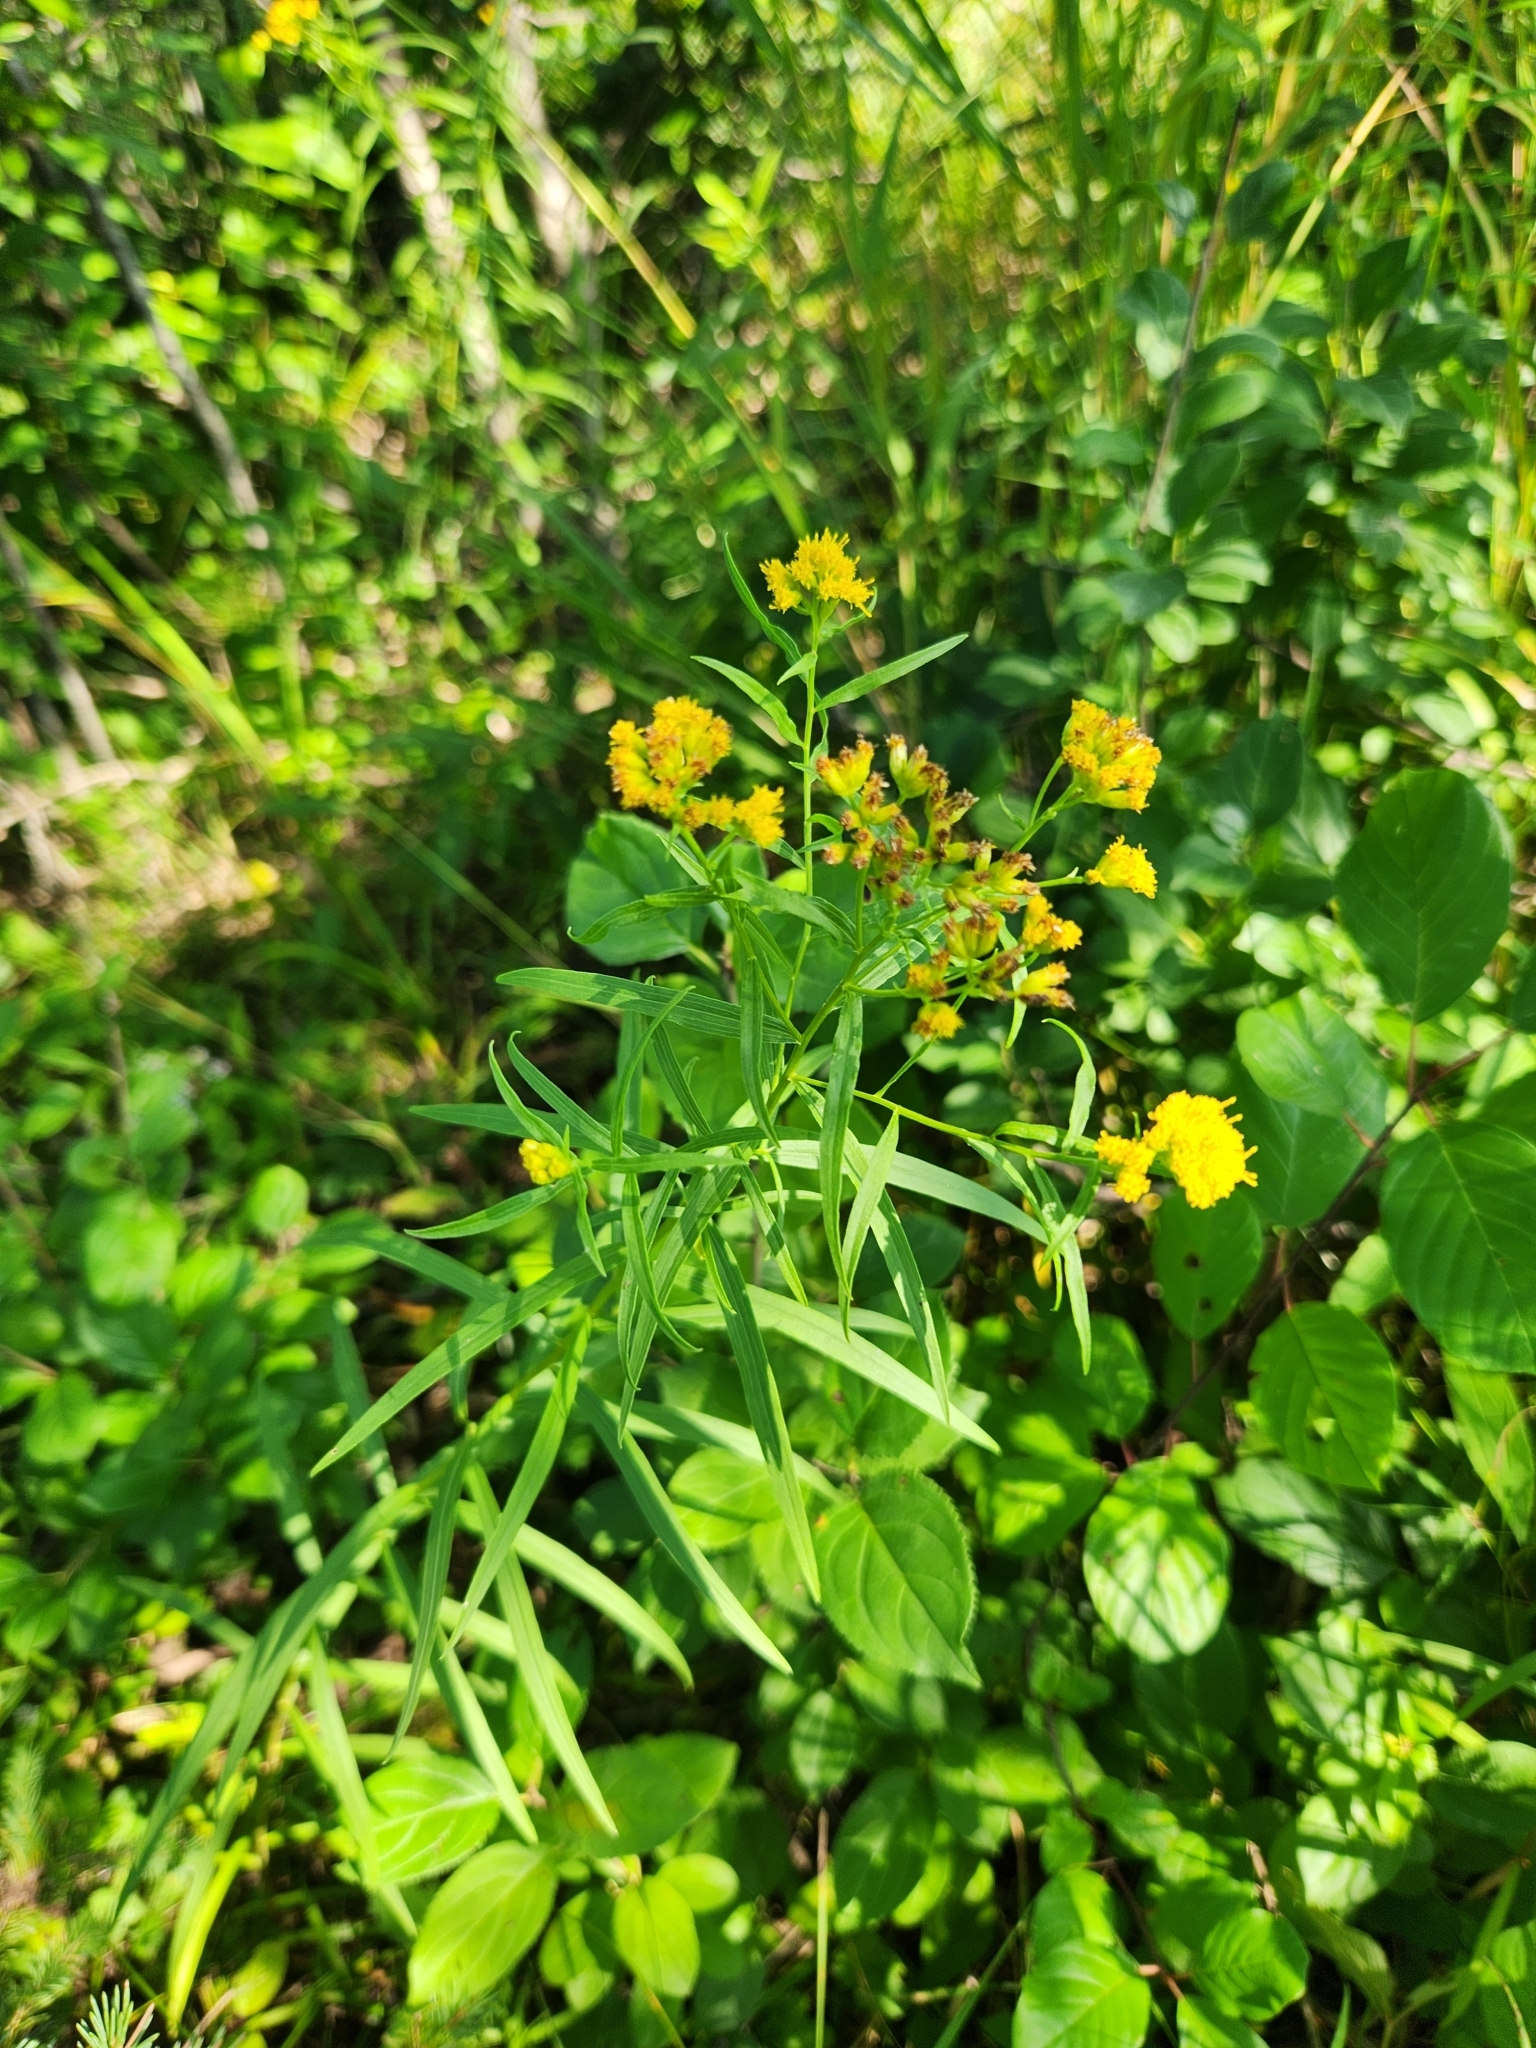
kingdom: Plantae
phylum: Tracheophyta
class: Magnoliopsida
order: Asterales
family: Asteraceae
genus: Euthamia
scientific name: Euthamia graminifolia
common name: Common goldentop
